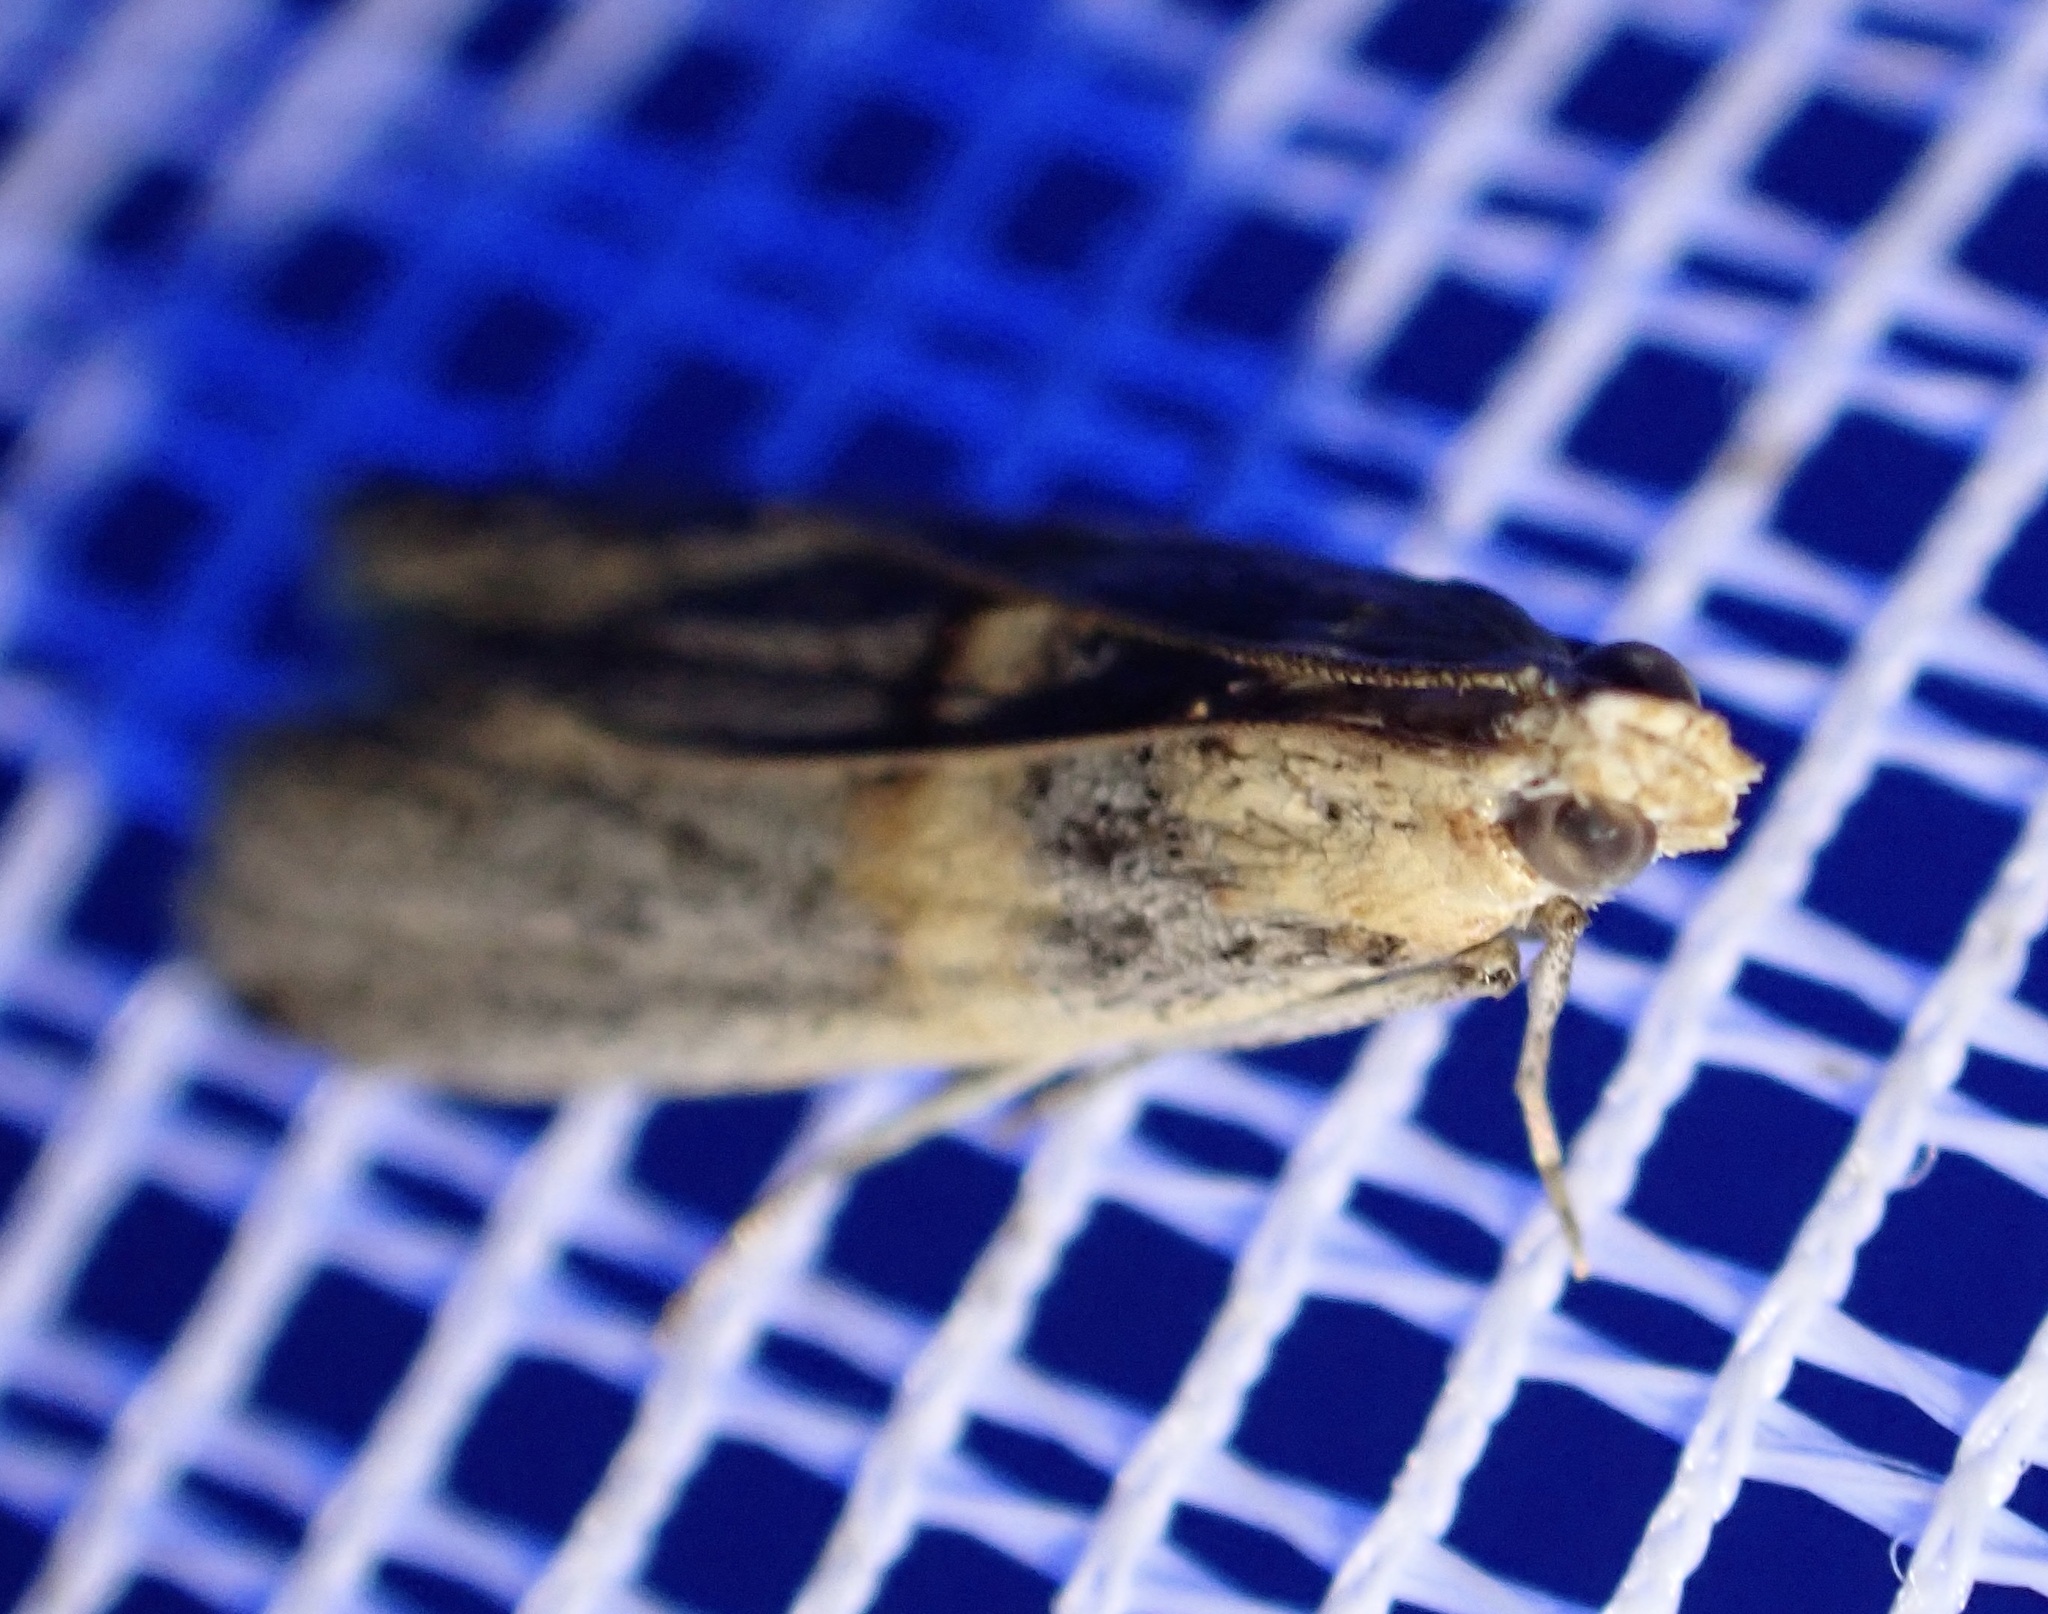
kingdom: Animalia
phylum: Arthropoda
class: Insecta
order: Lepidoptera
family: Pyralidae
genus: Oxybia
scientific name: Oxybia transversella
